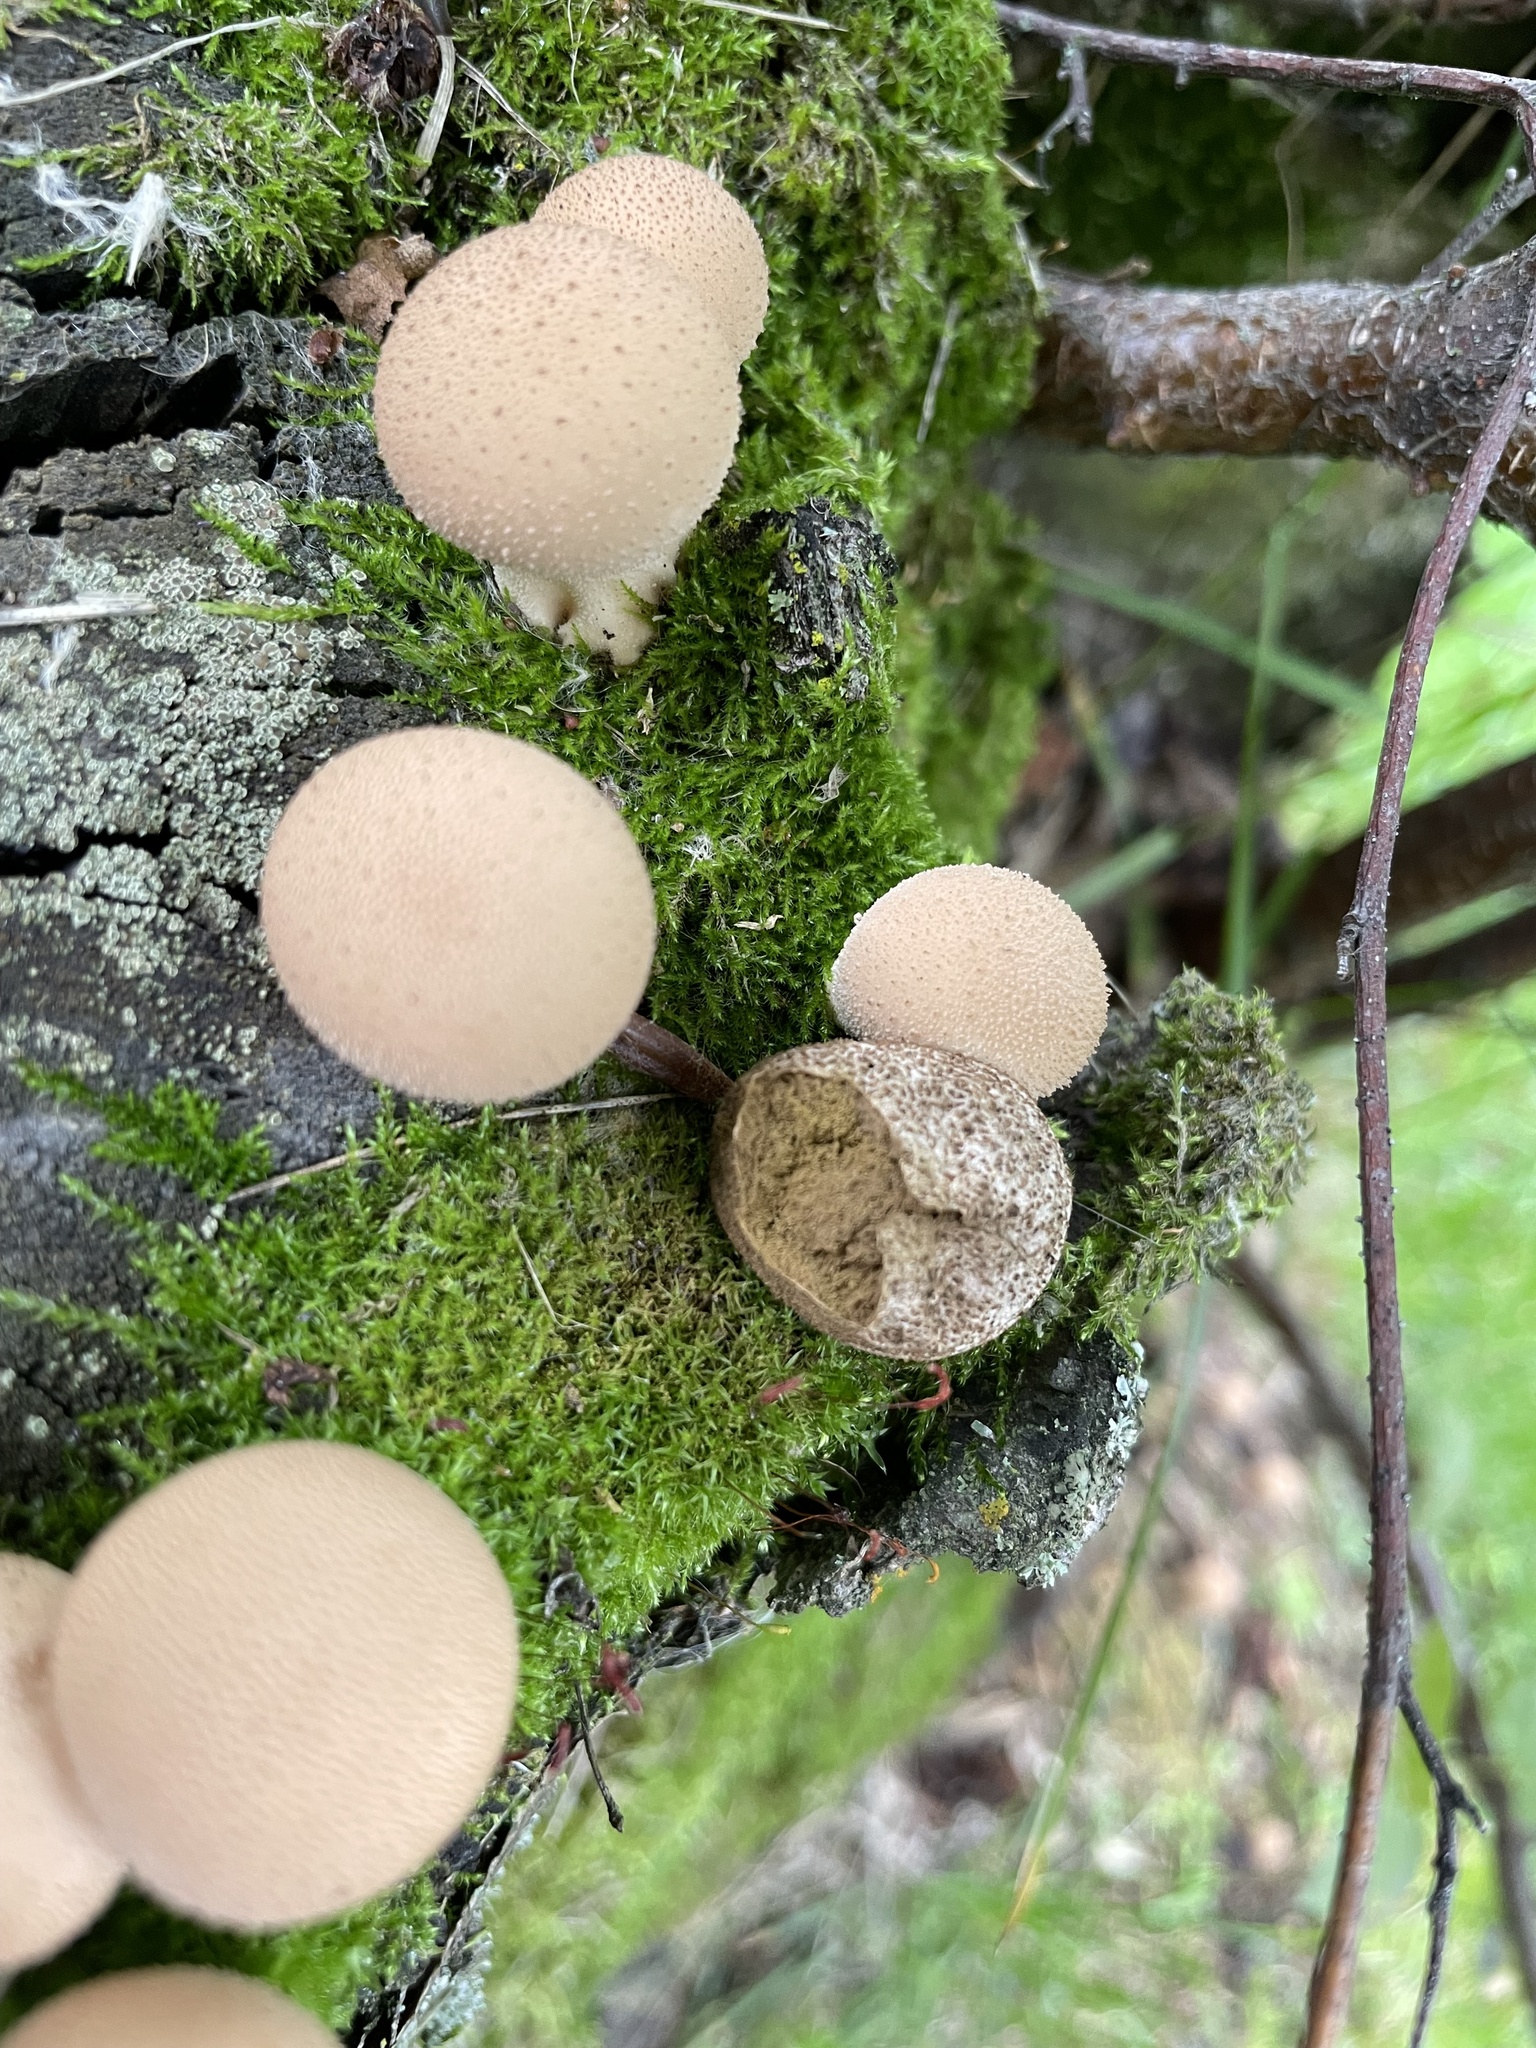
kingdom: Fungi
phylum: Basidiomycota
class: Agaricomycetes
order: Agaricales
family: Lycoperdaceae
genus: Apioperdon
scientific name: Apioperdon pyriforme
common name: Pear-shaped puffball
